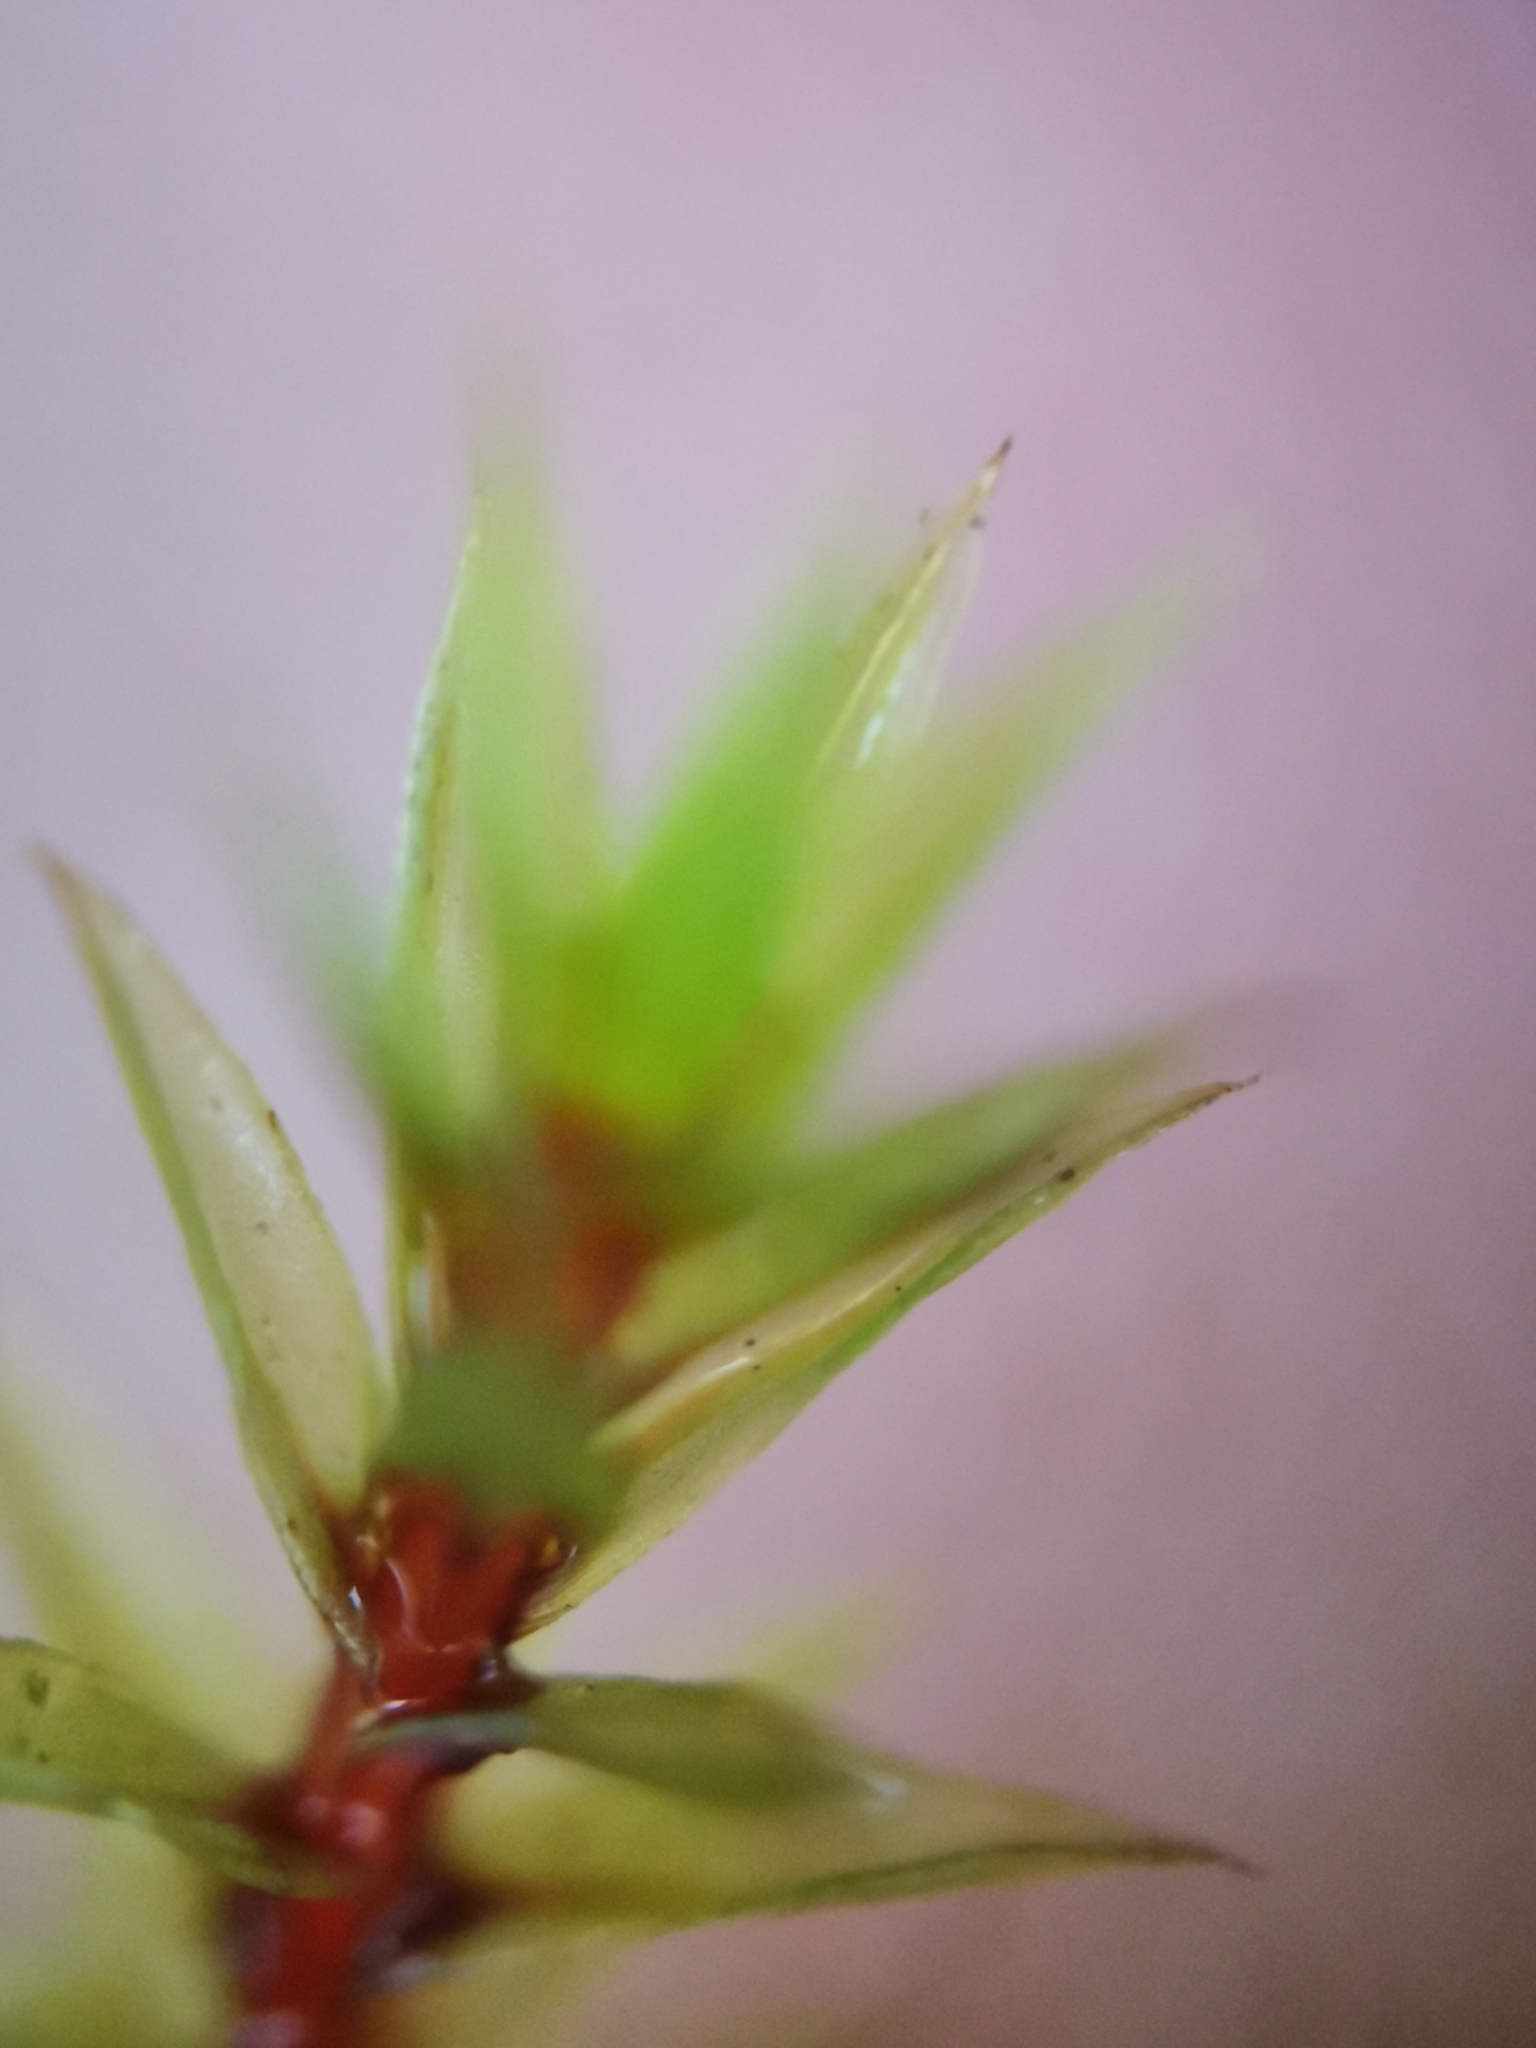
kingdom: Plantae
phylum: Bryophyta
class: Bryopsida
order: Bryales
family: Bryaceae
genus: Ptychostomum
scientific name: Ptychostomum pseudotriquetrum
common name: Long-leaved thread moss
